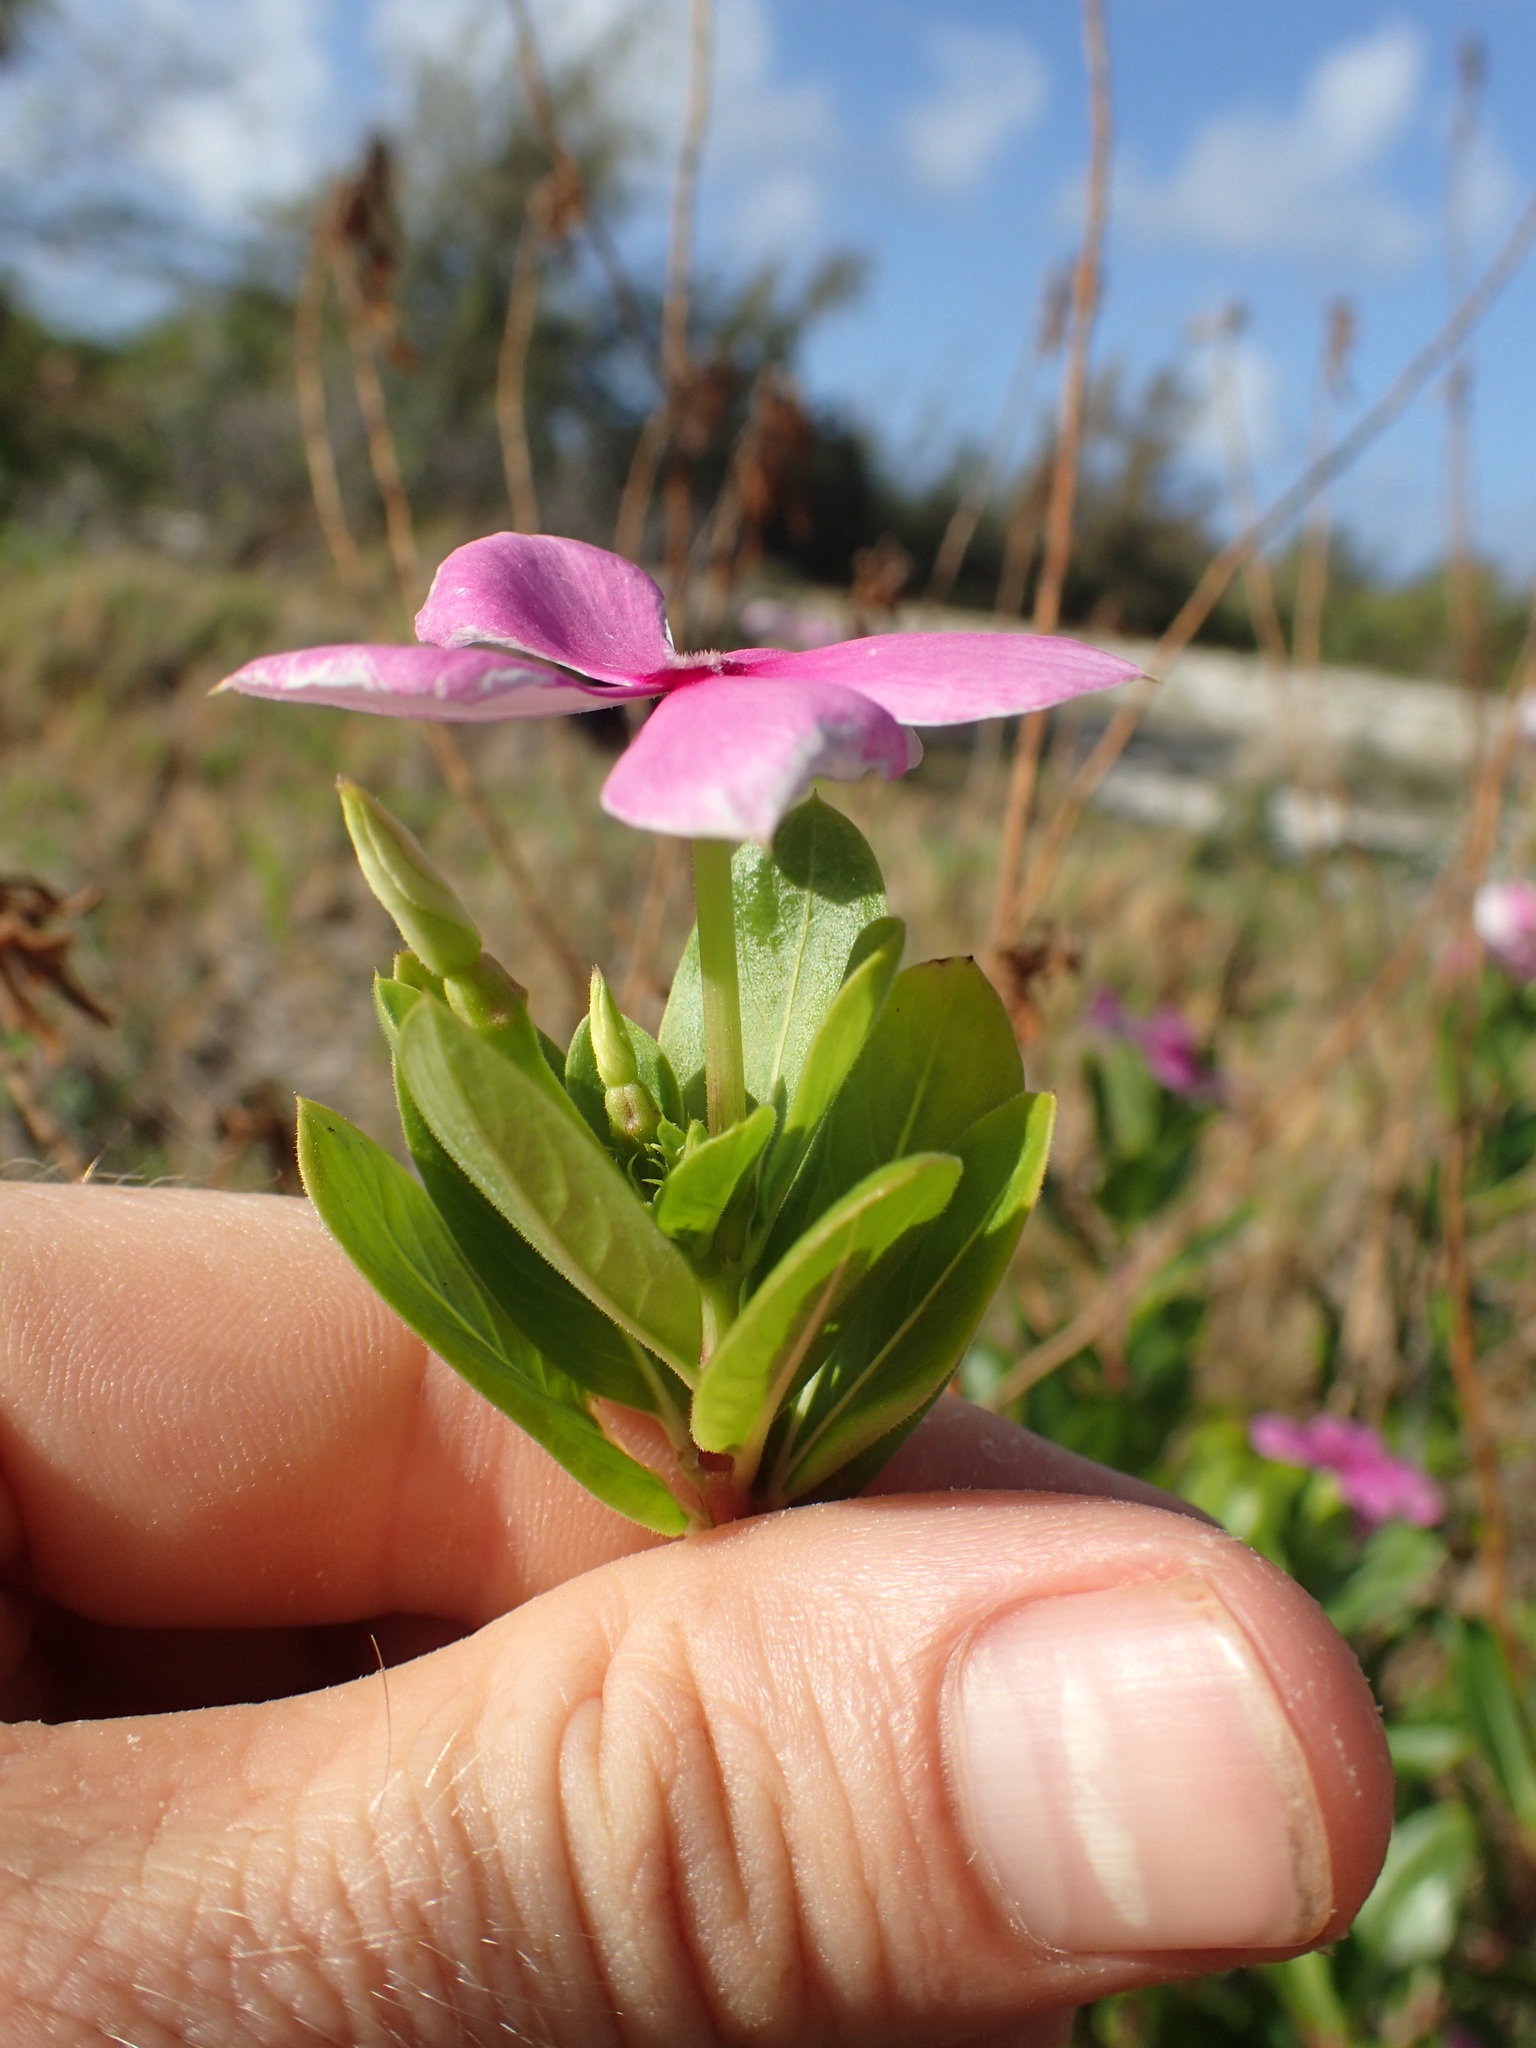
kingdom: Plantae
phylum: Tracheophyta
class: Magnoliopsida
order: Gentianales
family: Apocynaceae
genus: Catharanthus
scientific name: Catharanthus roseus
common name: Madagascar periwinkle
